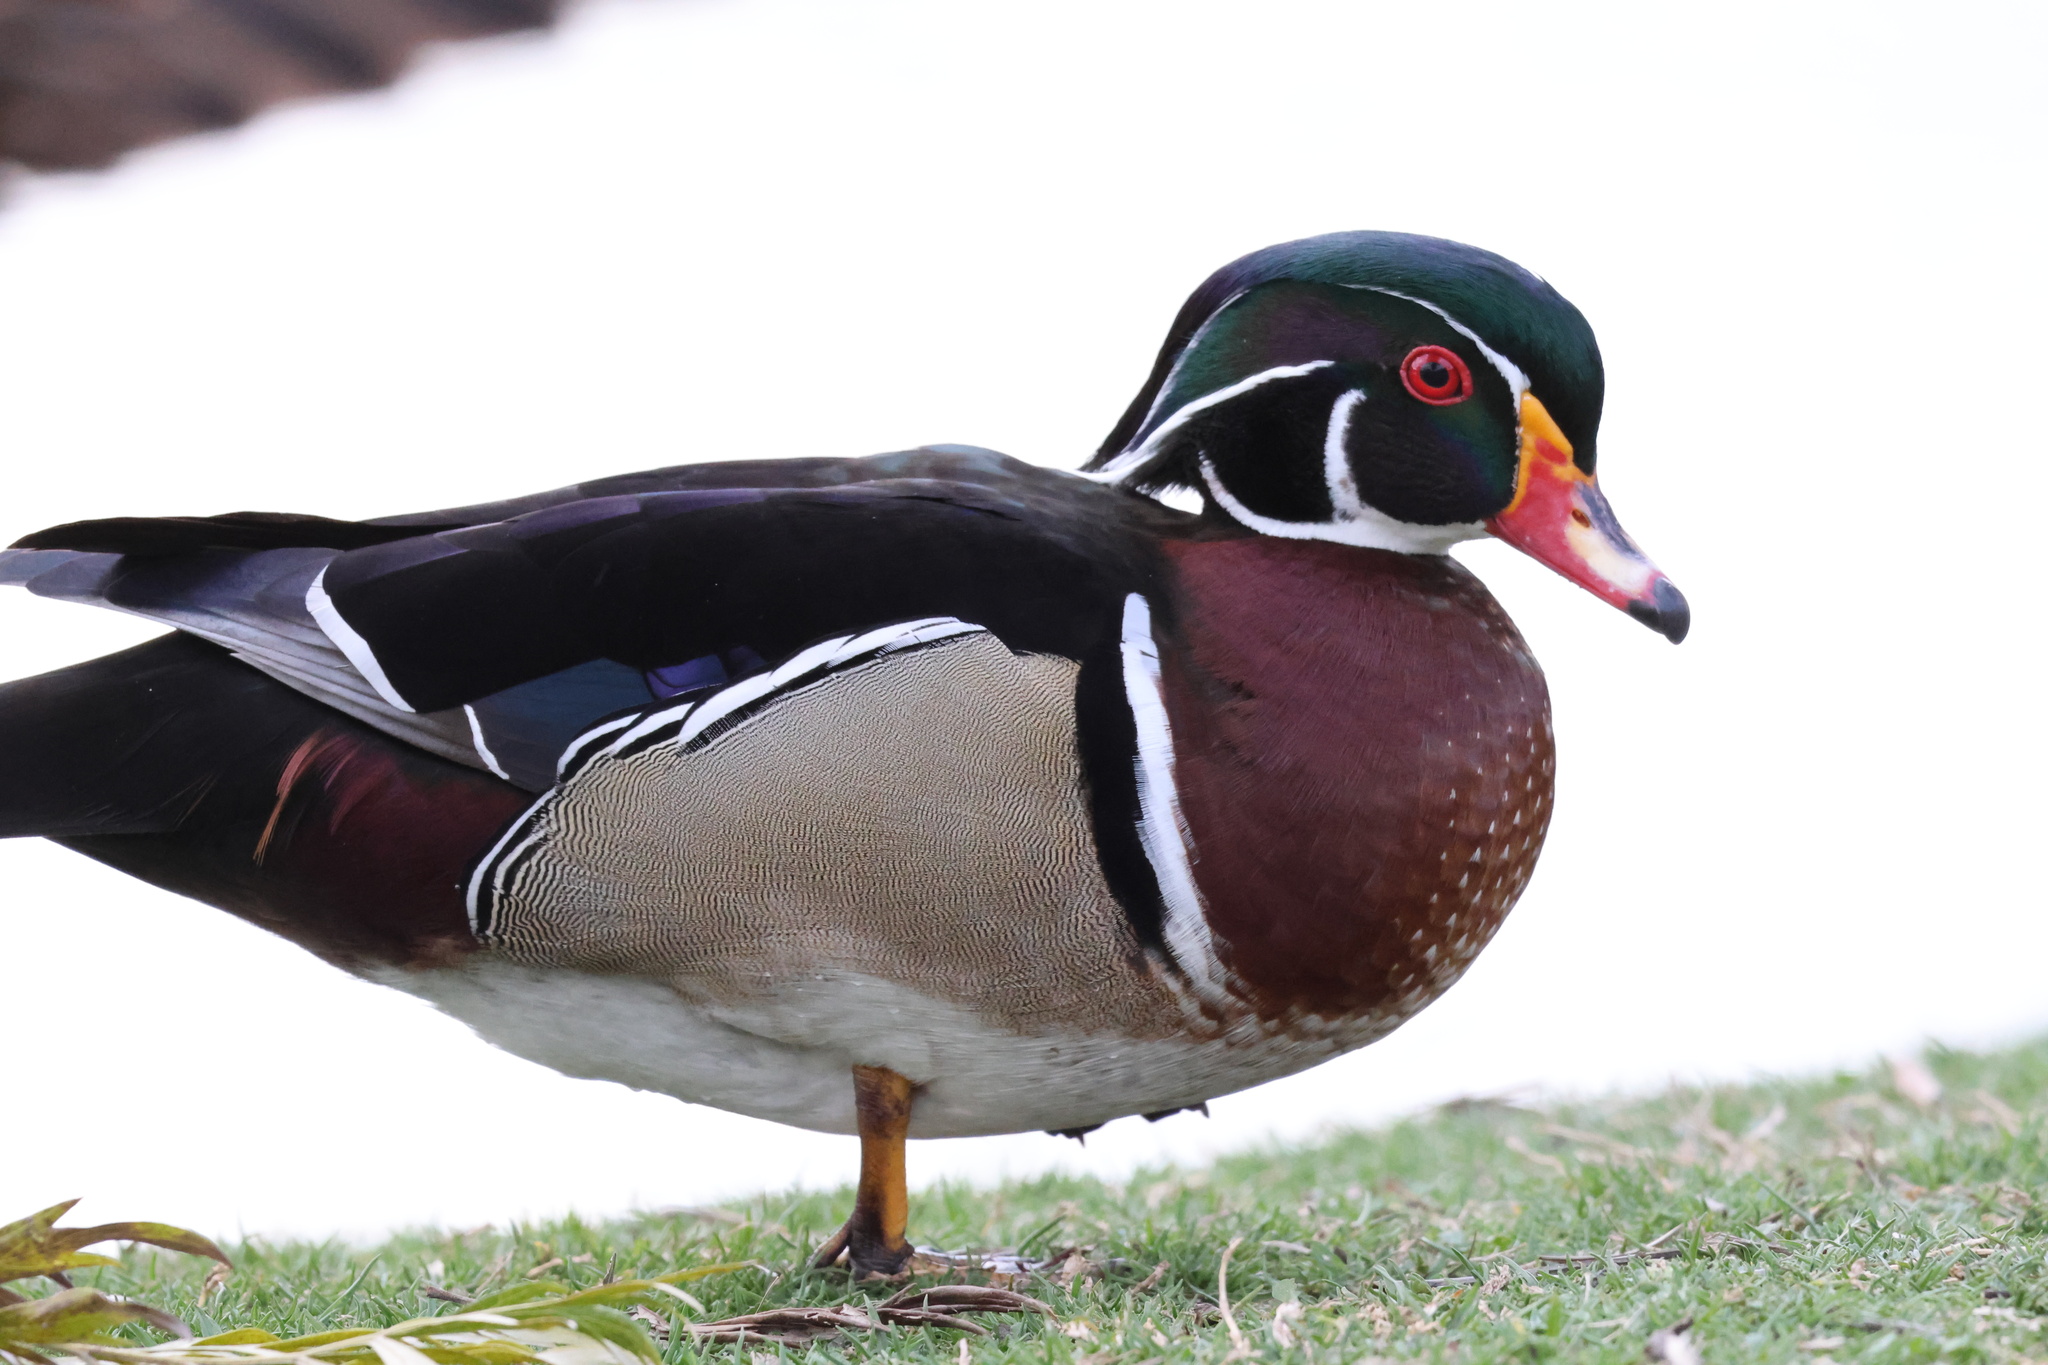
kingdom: Animalia
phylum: Chordata
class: Aves
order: Anseriformes
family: Anatidae
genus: Aix
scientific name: Aix sponsa
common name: Wood duck
